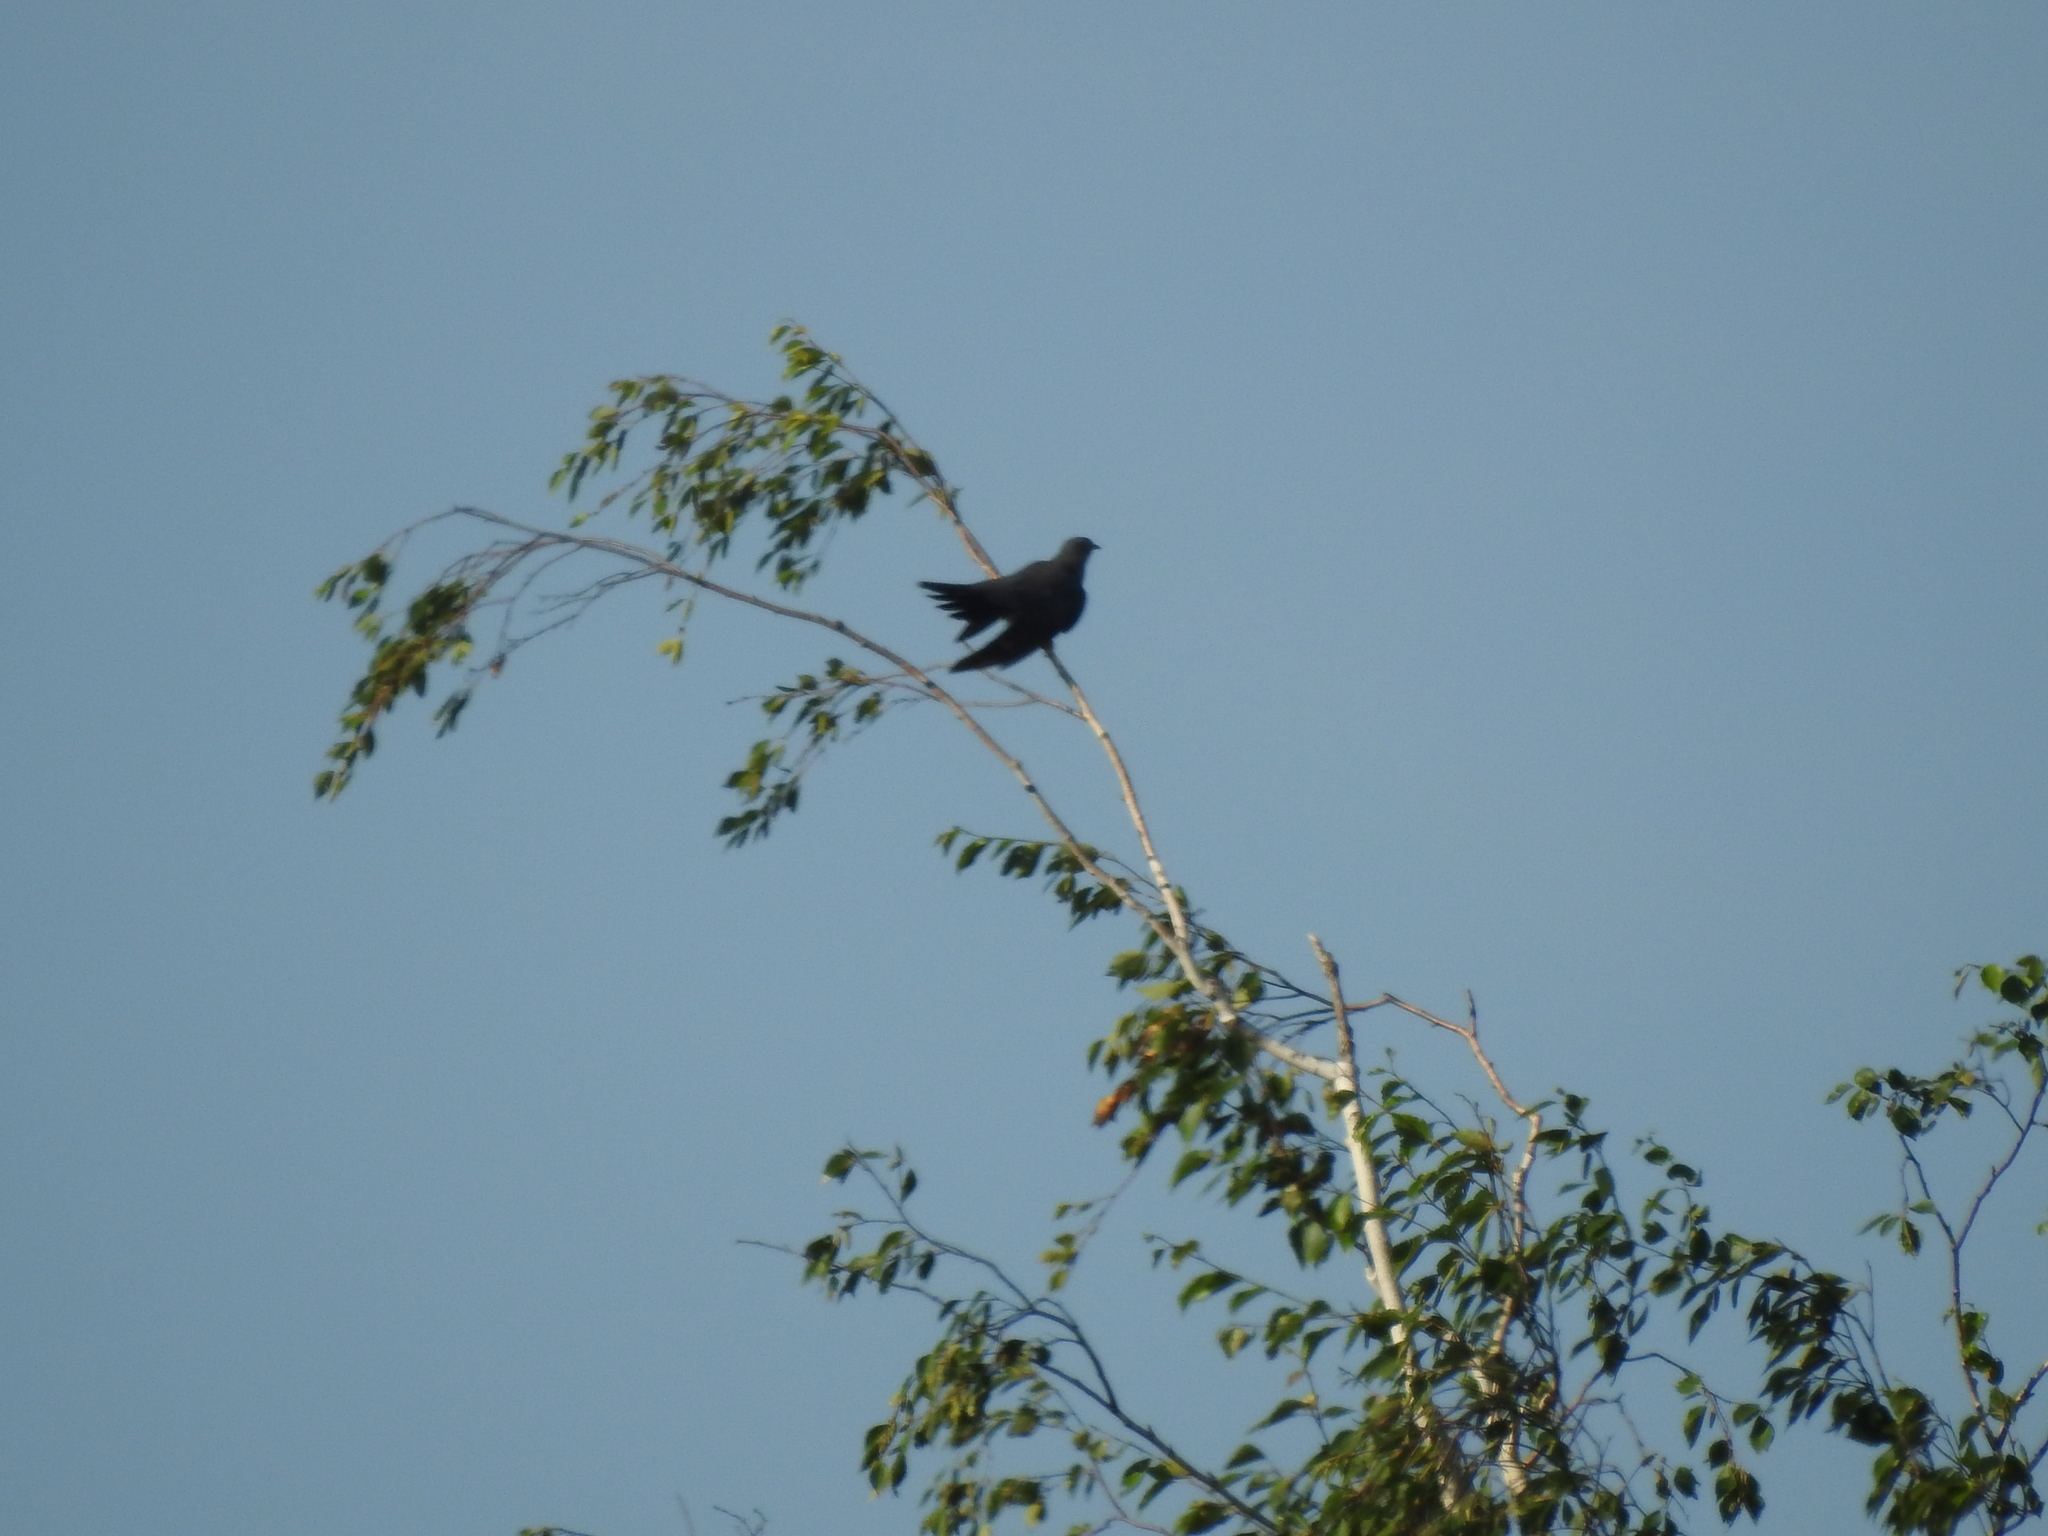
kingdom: Animalia
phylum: Chordata
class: Aves
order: Cuculiformes
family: Cuculidae
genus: Cuculus
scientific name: Cuculus canorus
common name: Common cuckoo
